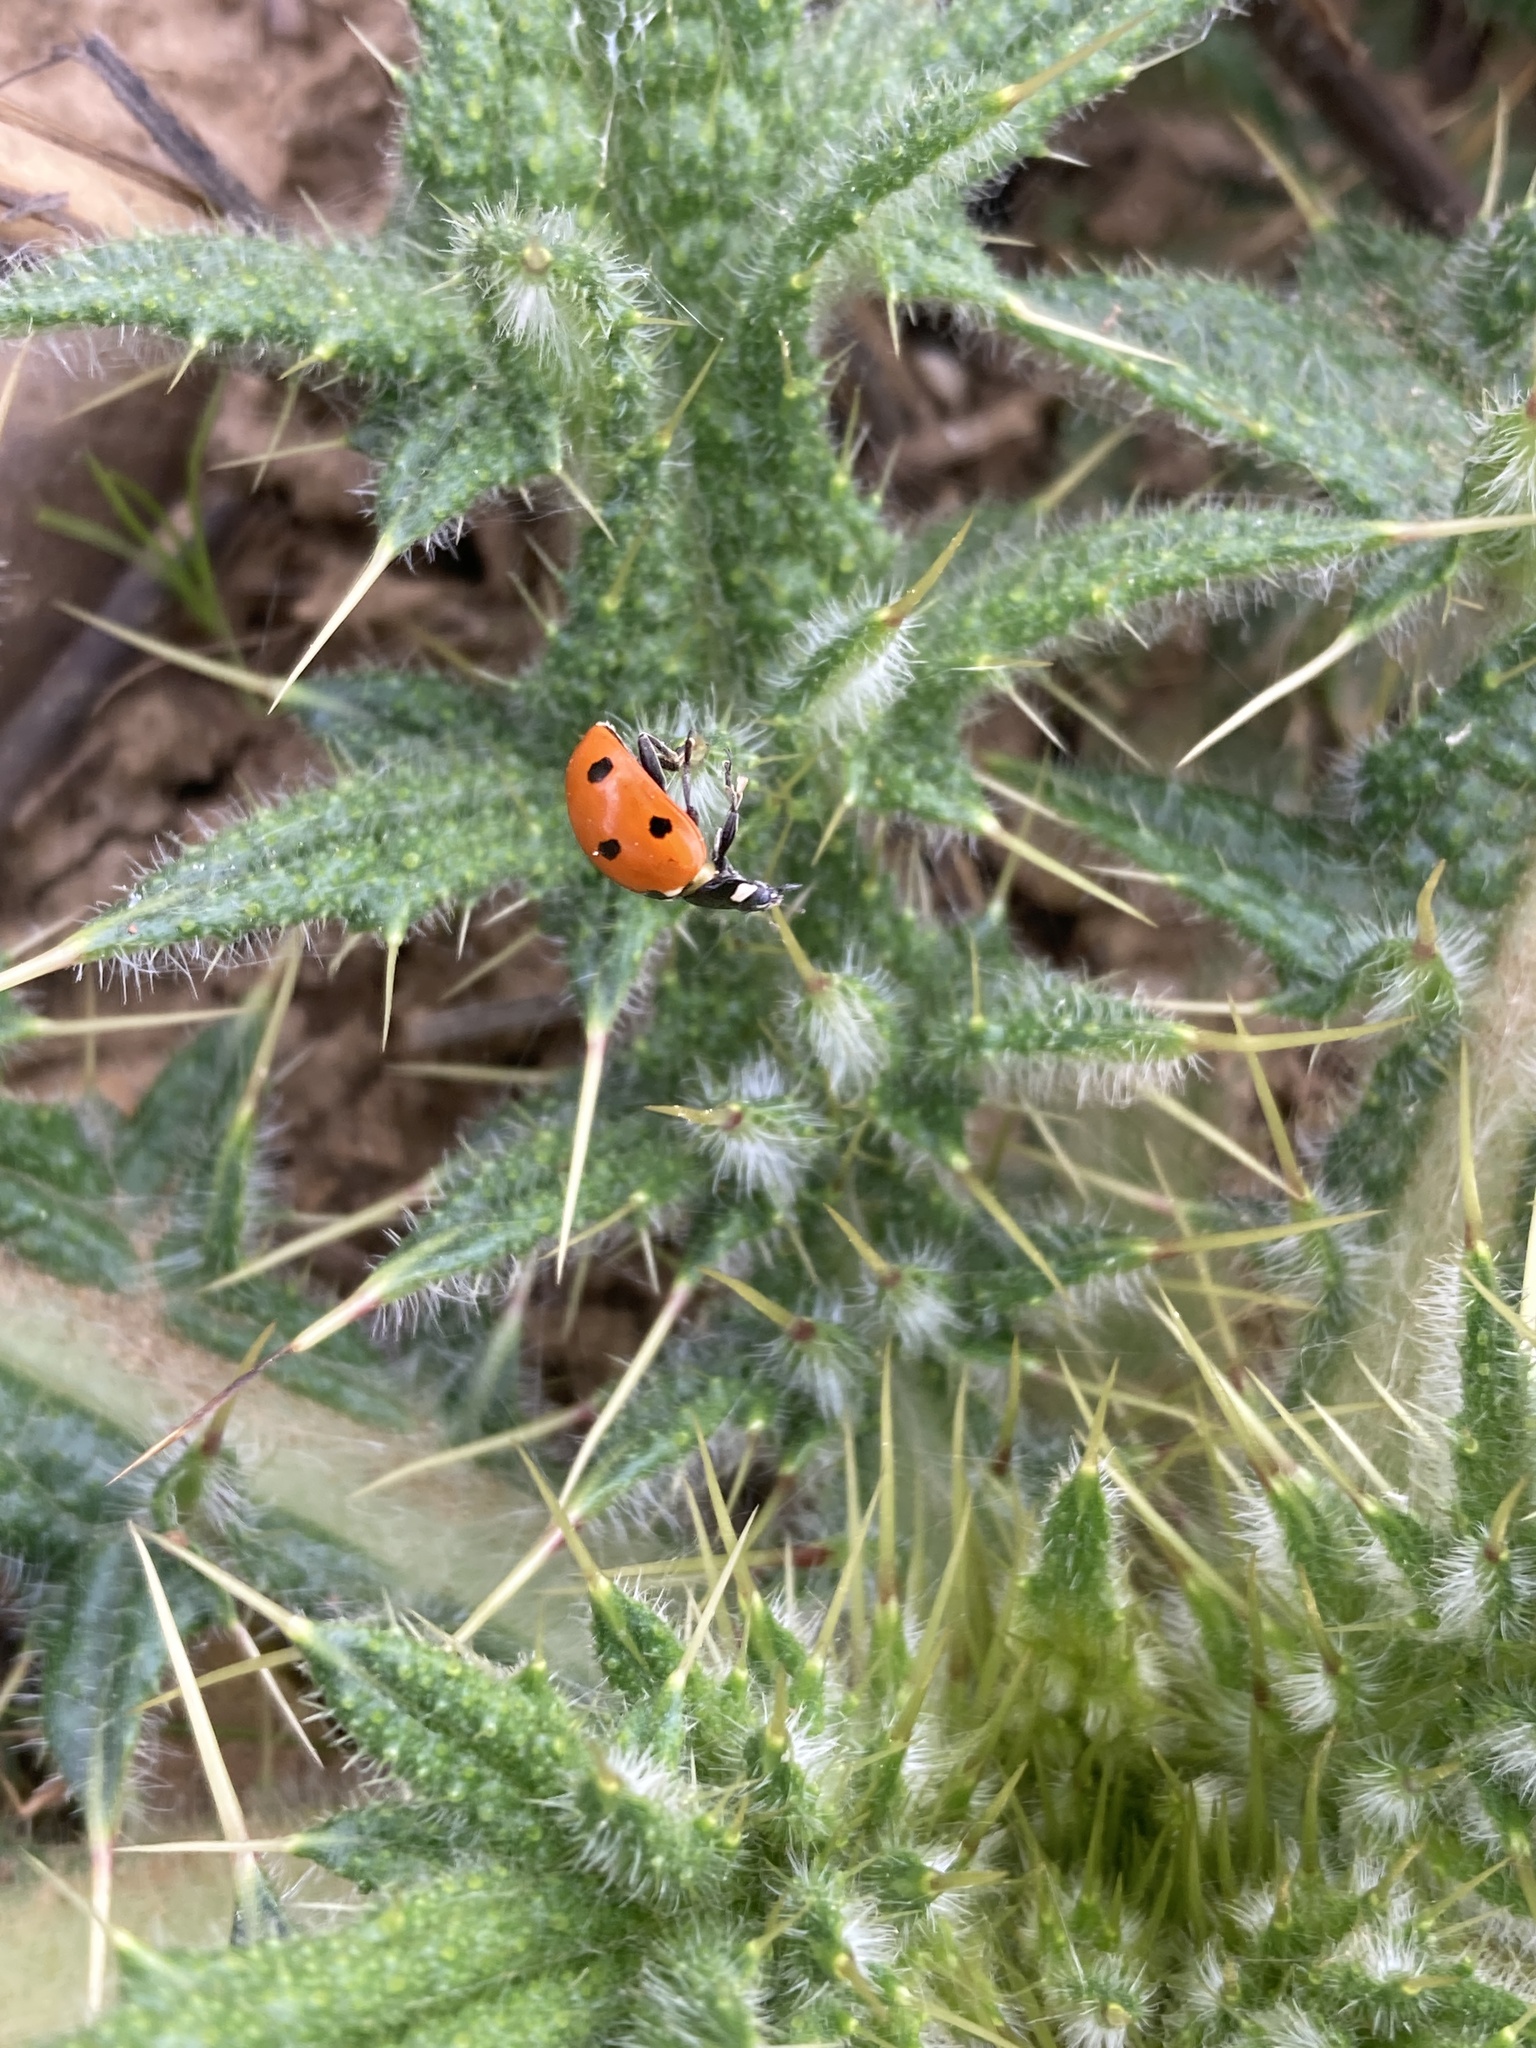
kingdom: Animalia
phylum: Arthropoda
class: Insecta
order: Coleoptera
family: Coccinellidae
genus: Coccinella
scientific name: Coccinella septempunctata
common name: Sevenspotted lady beetle
